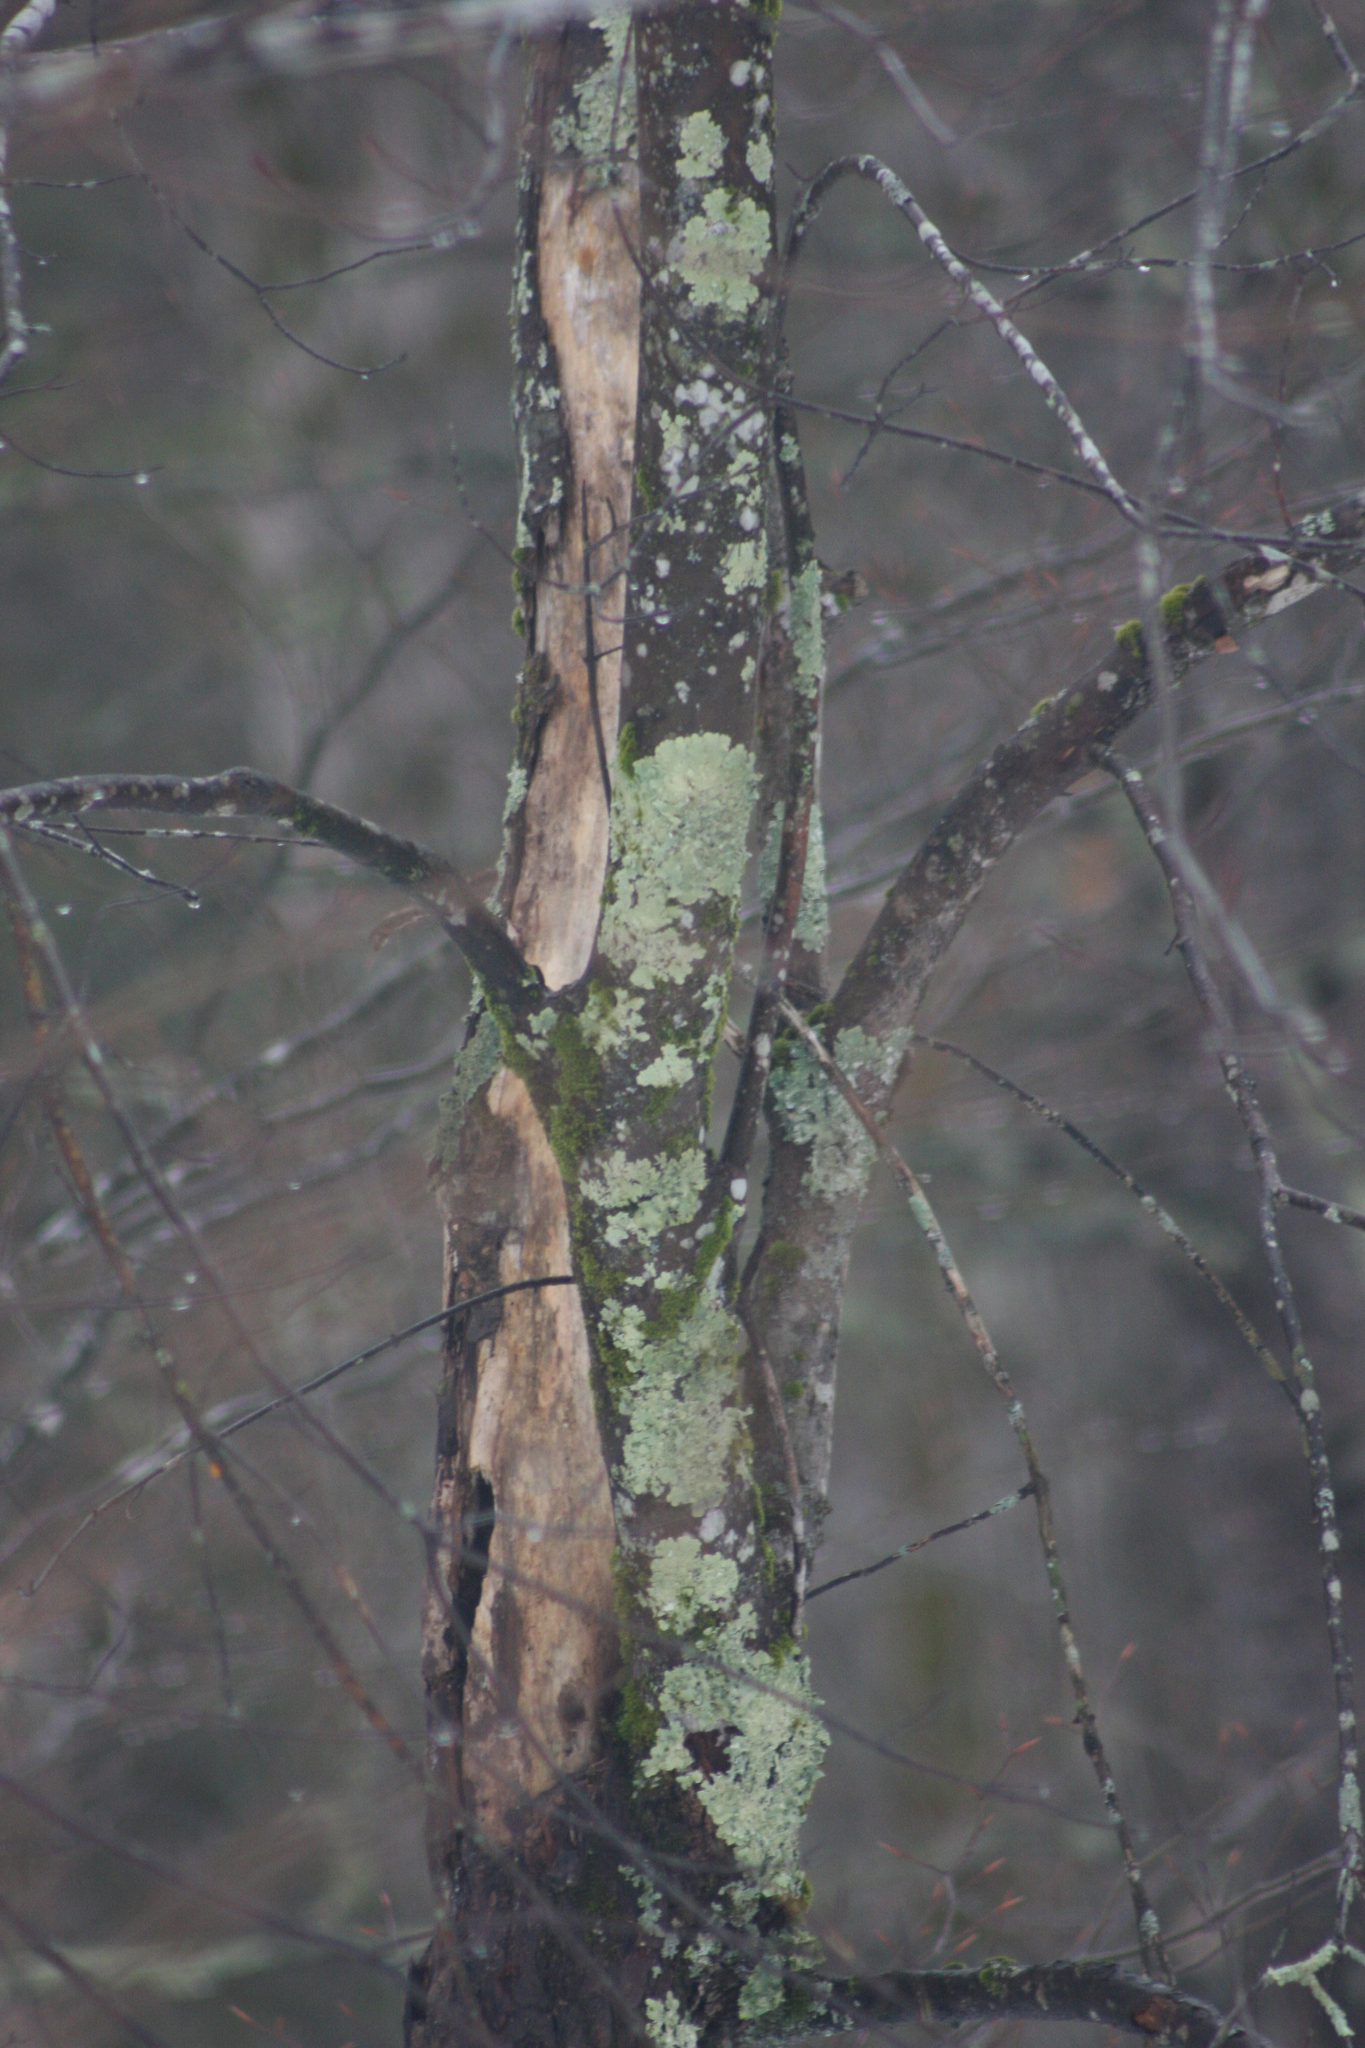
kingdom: Fungi
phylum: Ascomycota
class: Lecanoromycetes
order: Lecanorales
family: Parmeliaceae
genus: Flavoparmelia
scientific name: Flavoparmelia caperata
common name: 40-mile per hour lichen
